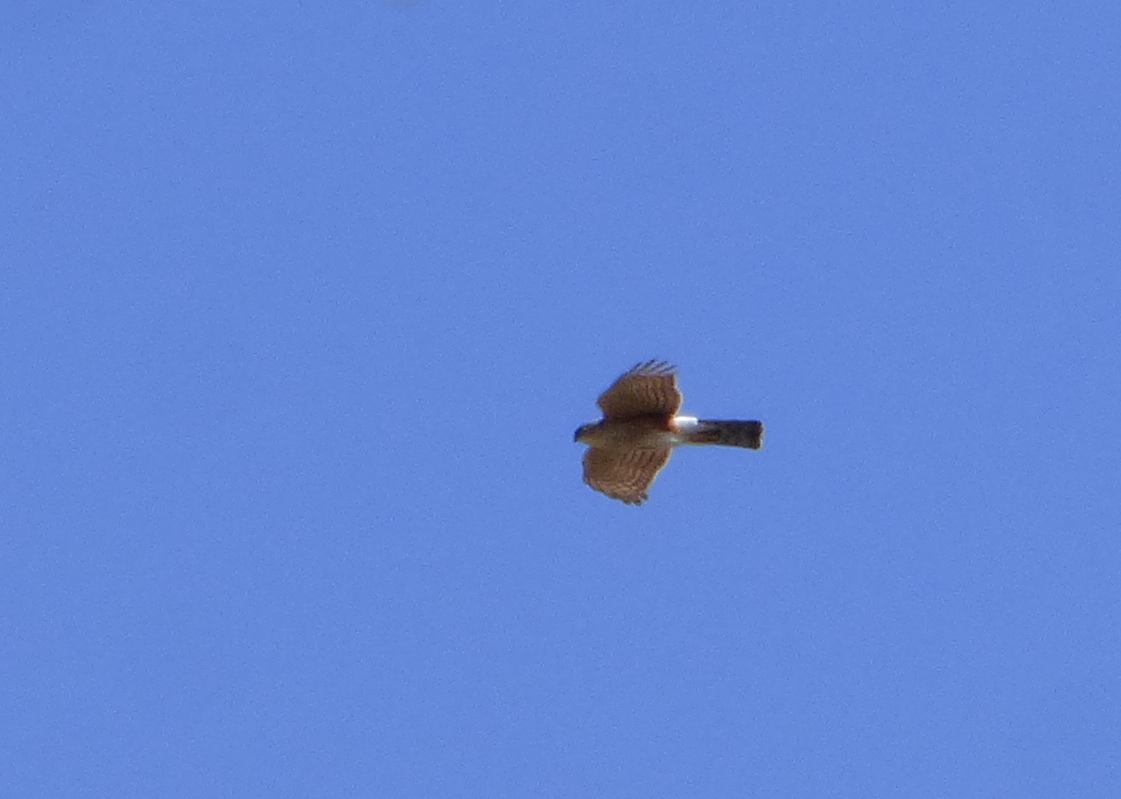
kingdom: Animalia
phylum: Chordata
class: Aves
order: Accipitriformes
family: Accipitridae
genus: Accipiter
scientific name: Accipiter striatus
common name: Sharp-shinned hawk
